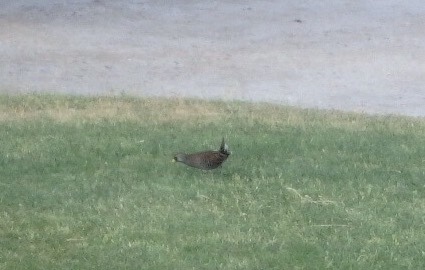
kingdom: Animalia
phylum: Chordata
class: Aves
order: Gruiformes
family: Rallidae
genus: Porzana
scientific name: Porzana carolina
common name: Sora
